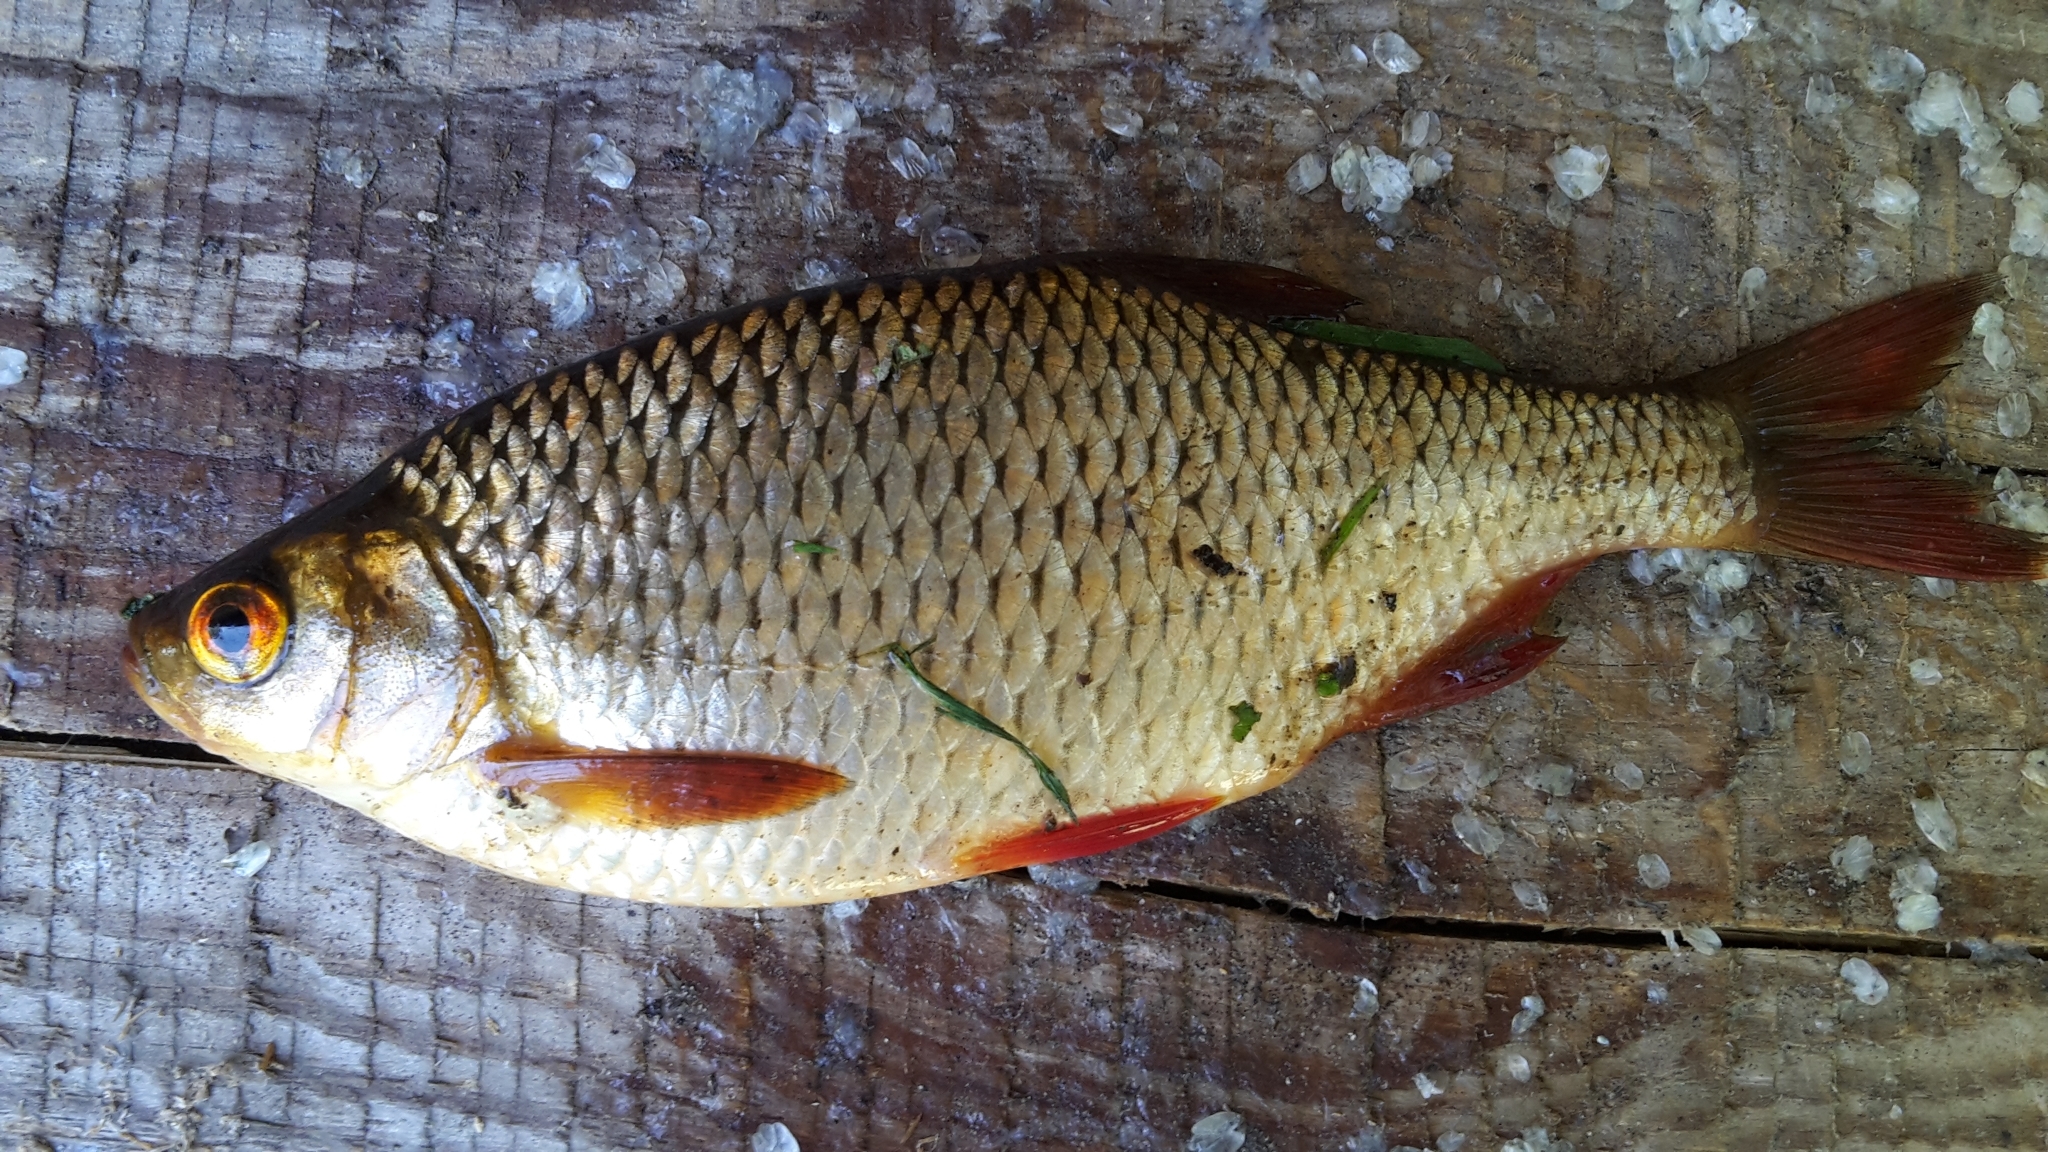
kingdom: Animalia
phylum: Chordata
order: Cypriniformes
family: Cyprinidae
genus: Scardinius
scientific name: Scardinius erythrophthalmus
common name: Rudd
